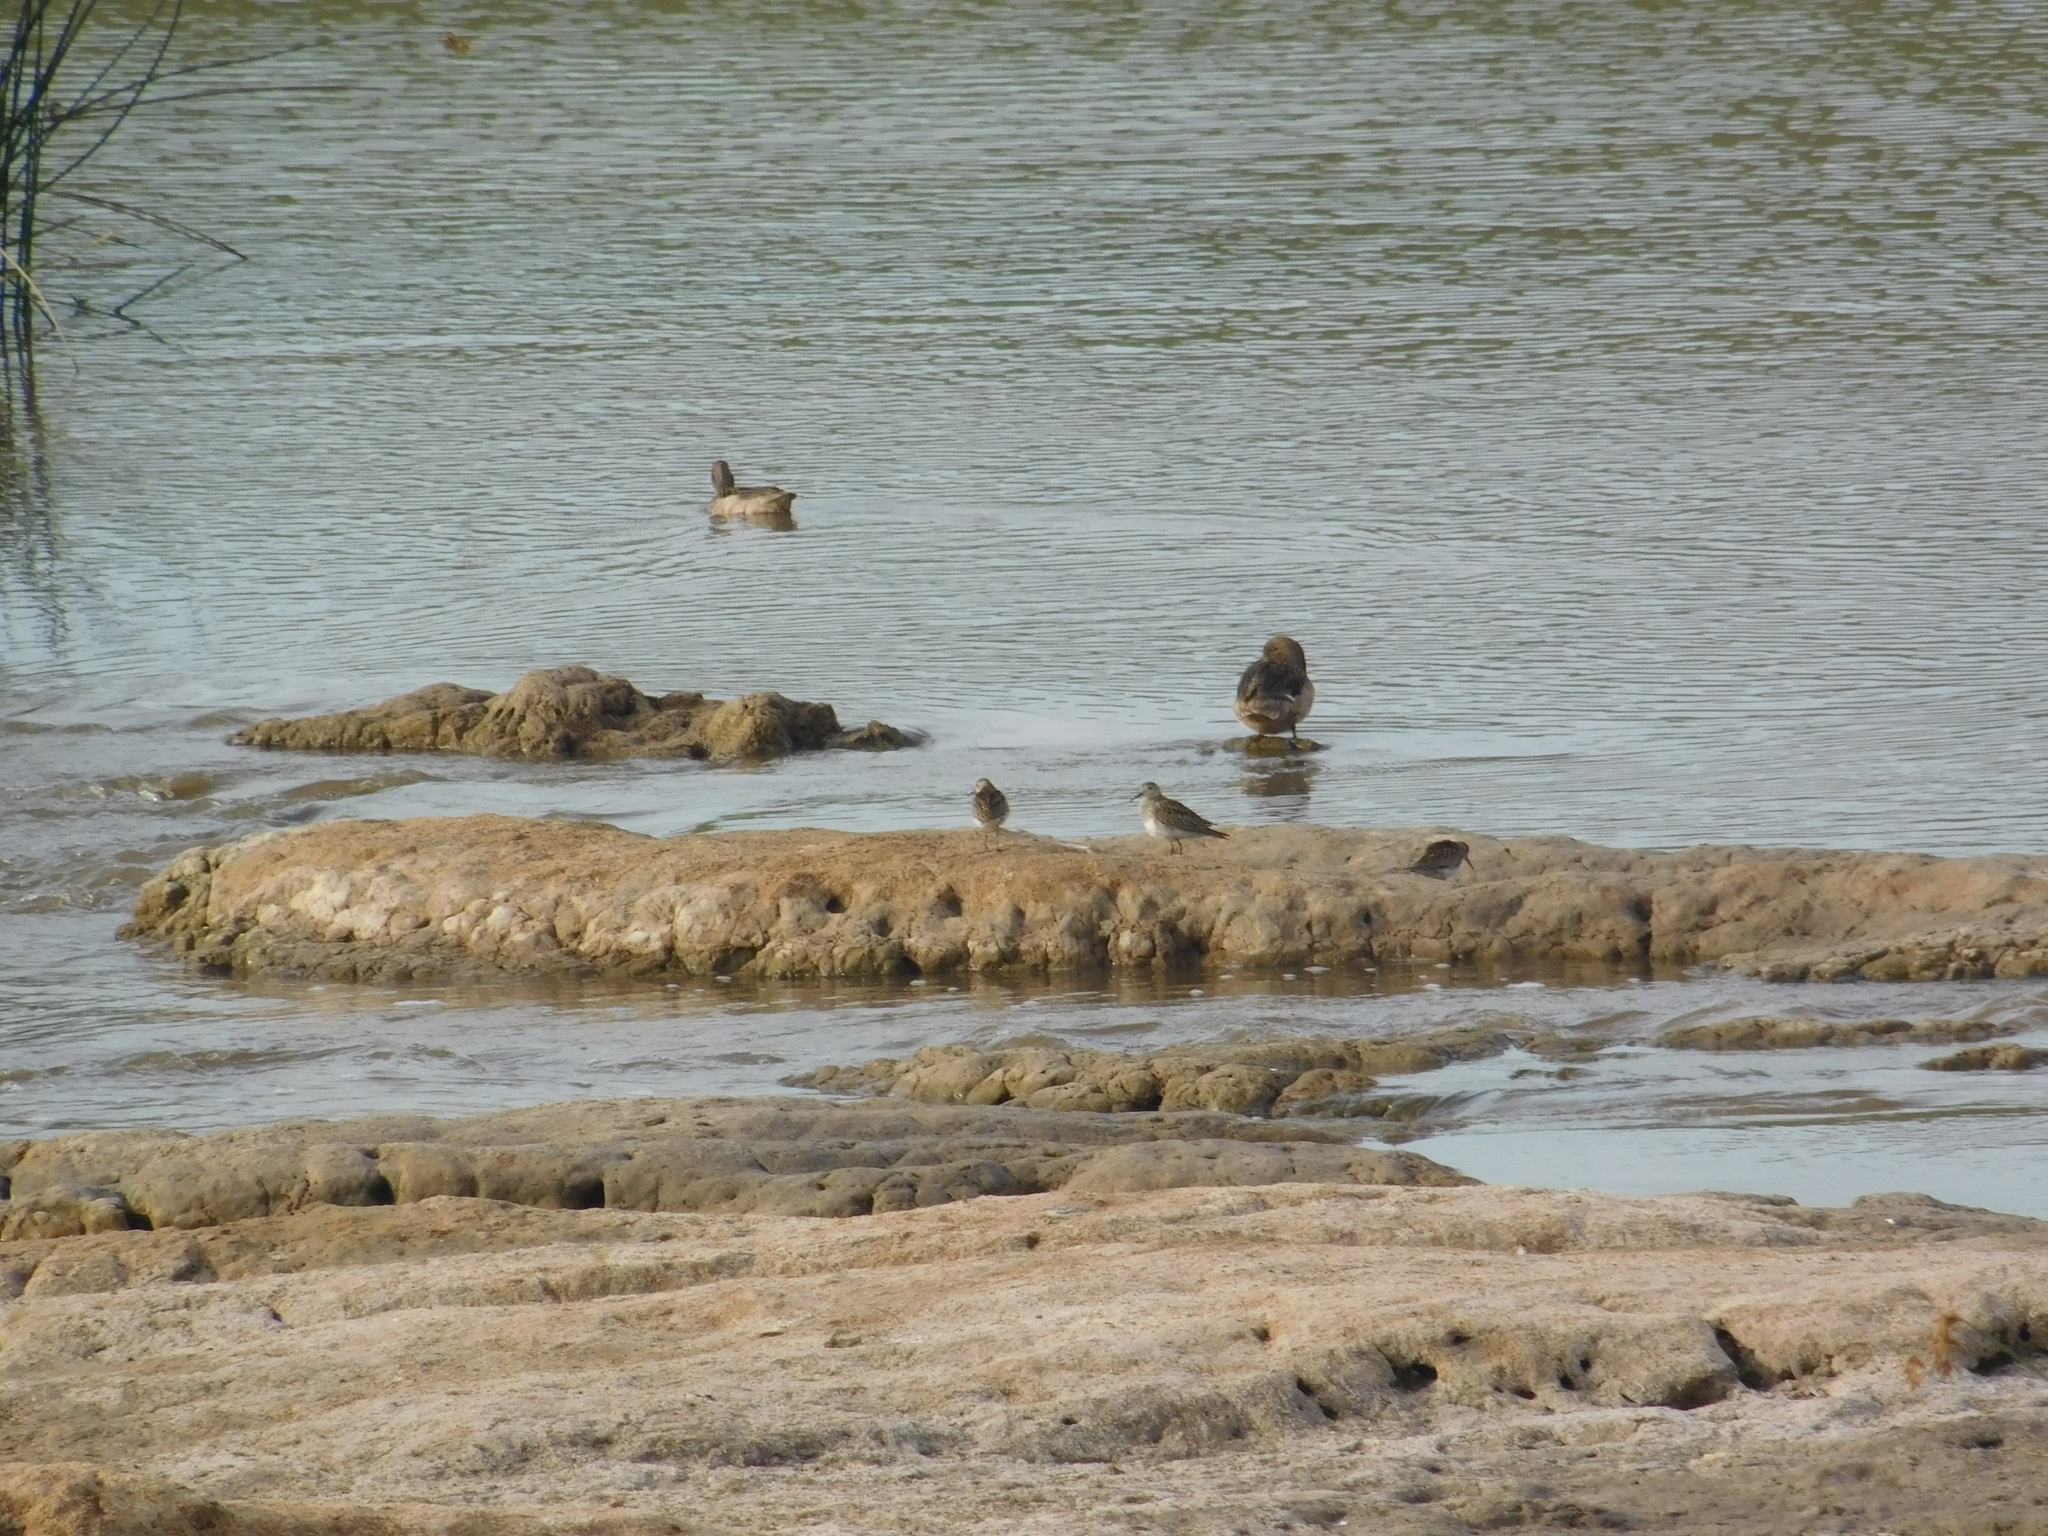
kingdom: Animalia
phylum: Chordata
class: Aves
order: Charadriiformes
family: Scolopacidae
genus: Calidris
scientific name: Calidris melanotos
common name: Pectoral sandpiper
